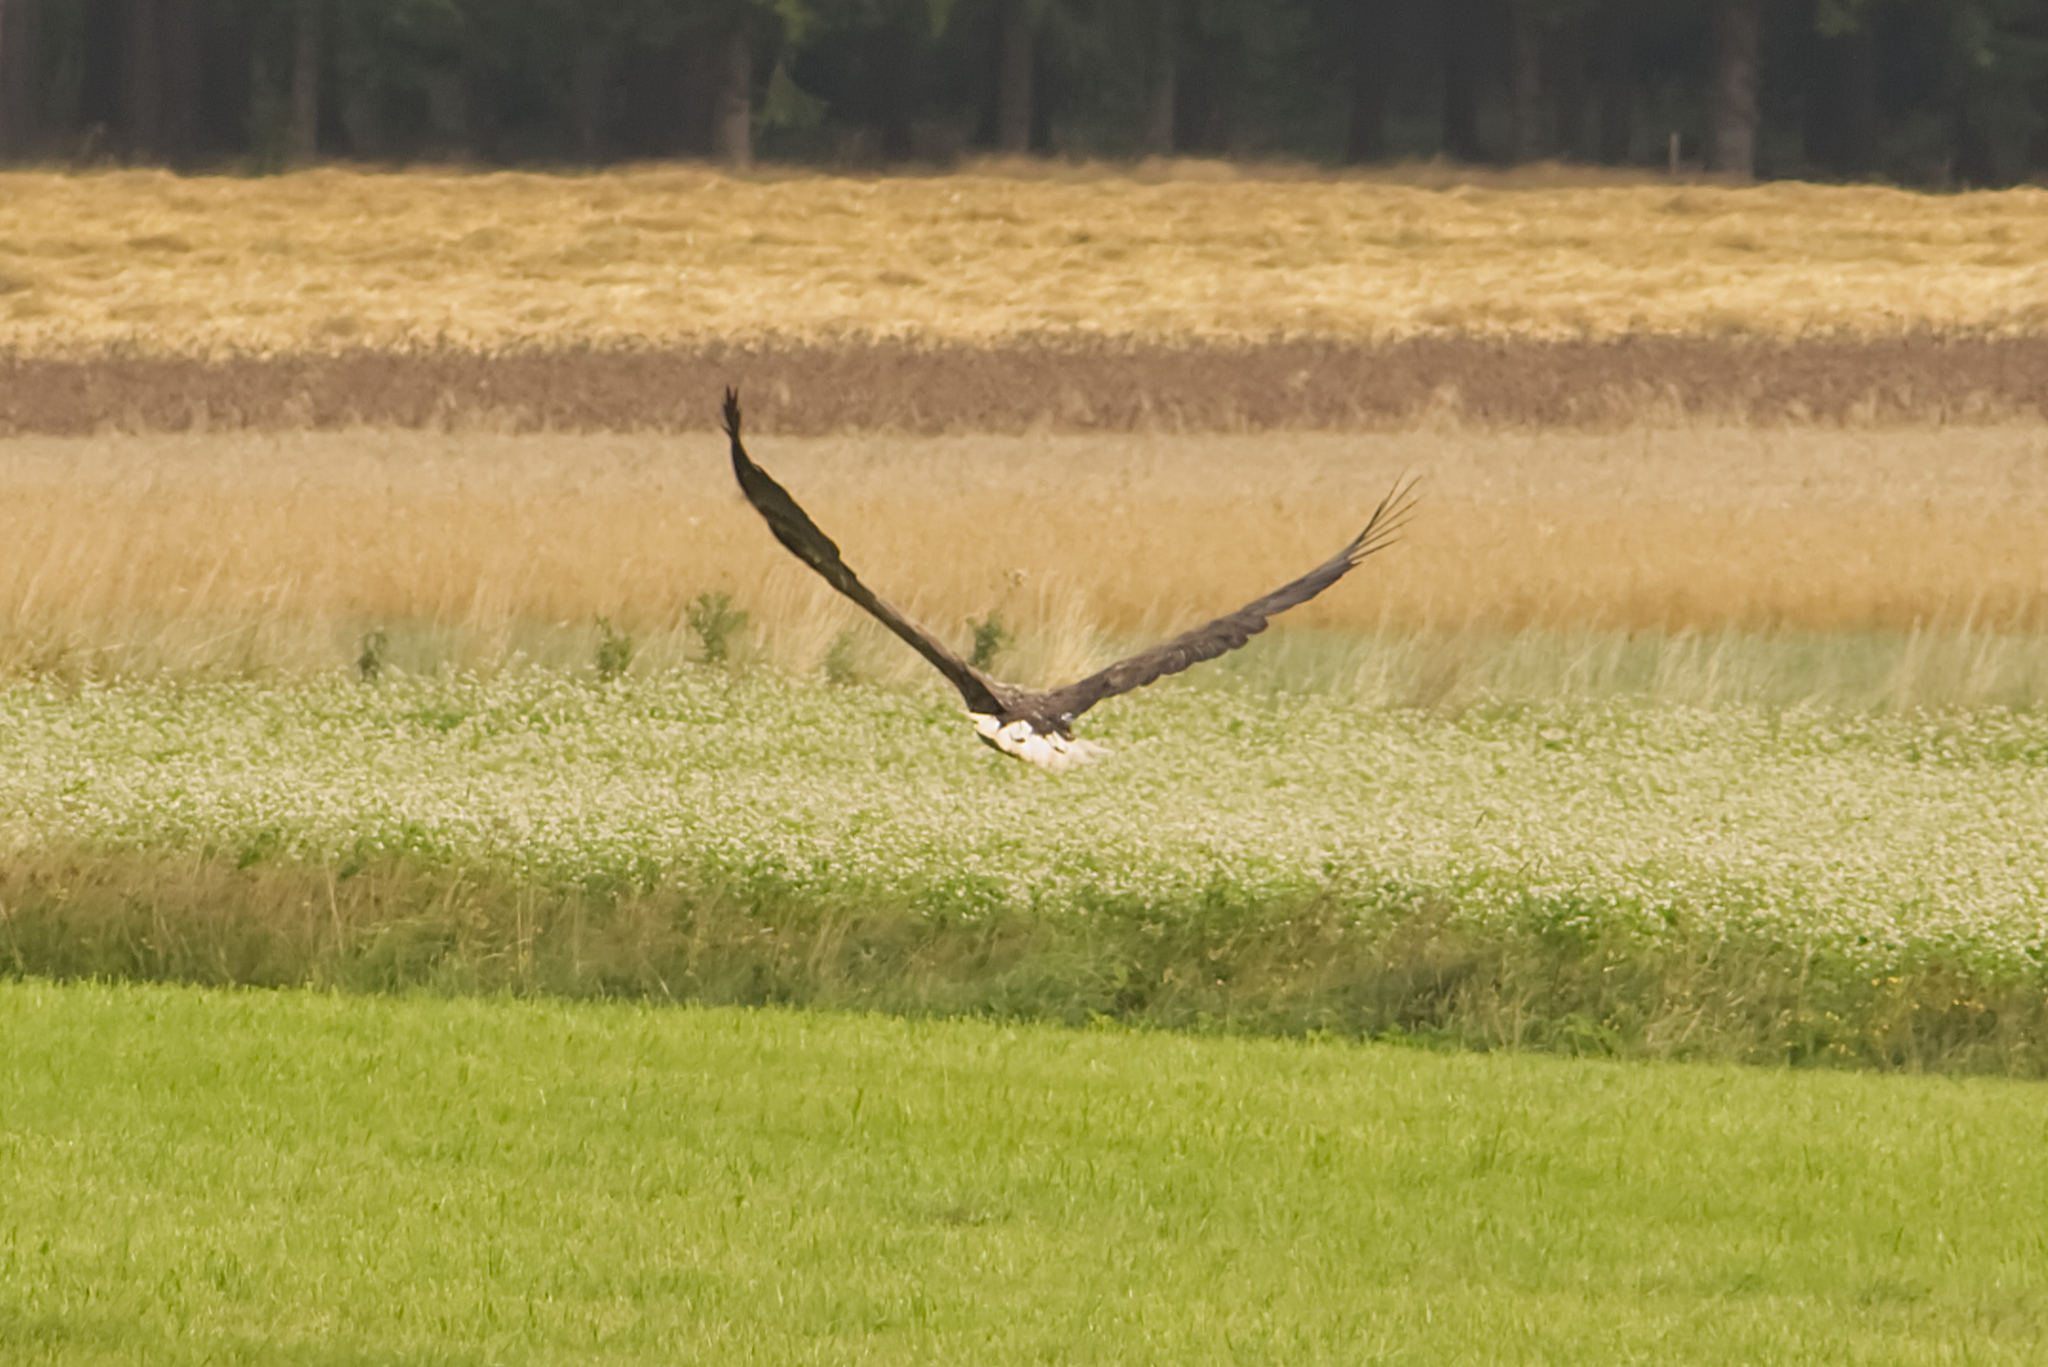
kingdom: Animalia
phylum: Chordata
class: Aves
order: Accipitriformes
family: Accipitridae
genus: Haliaeetus
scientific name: Haliaeetus albicilla
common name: White-tailed eagle
